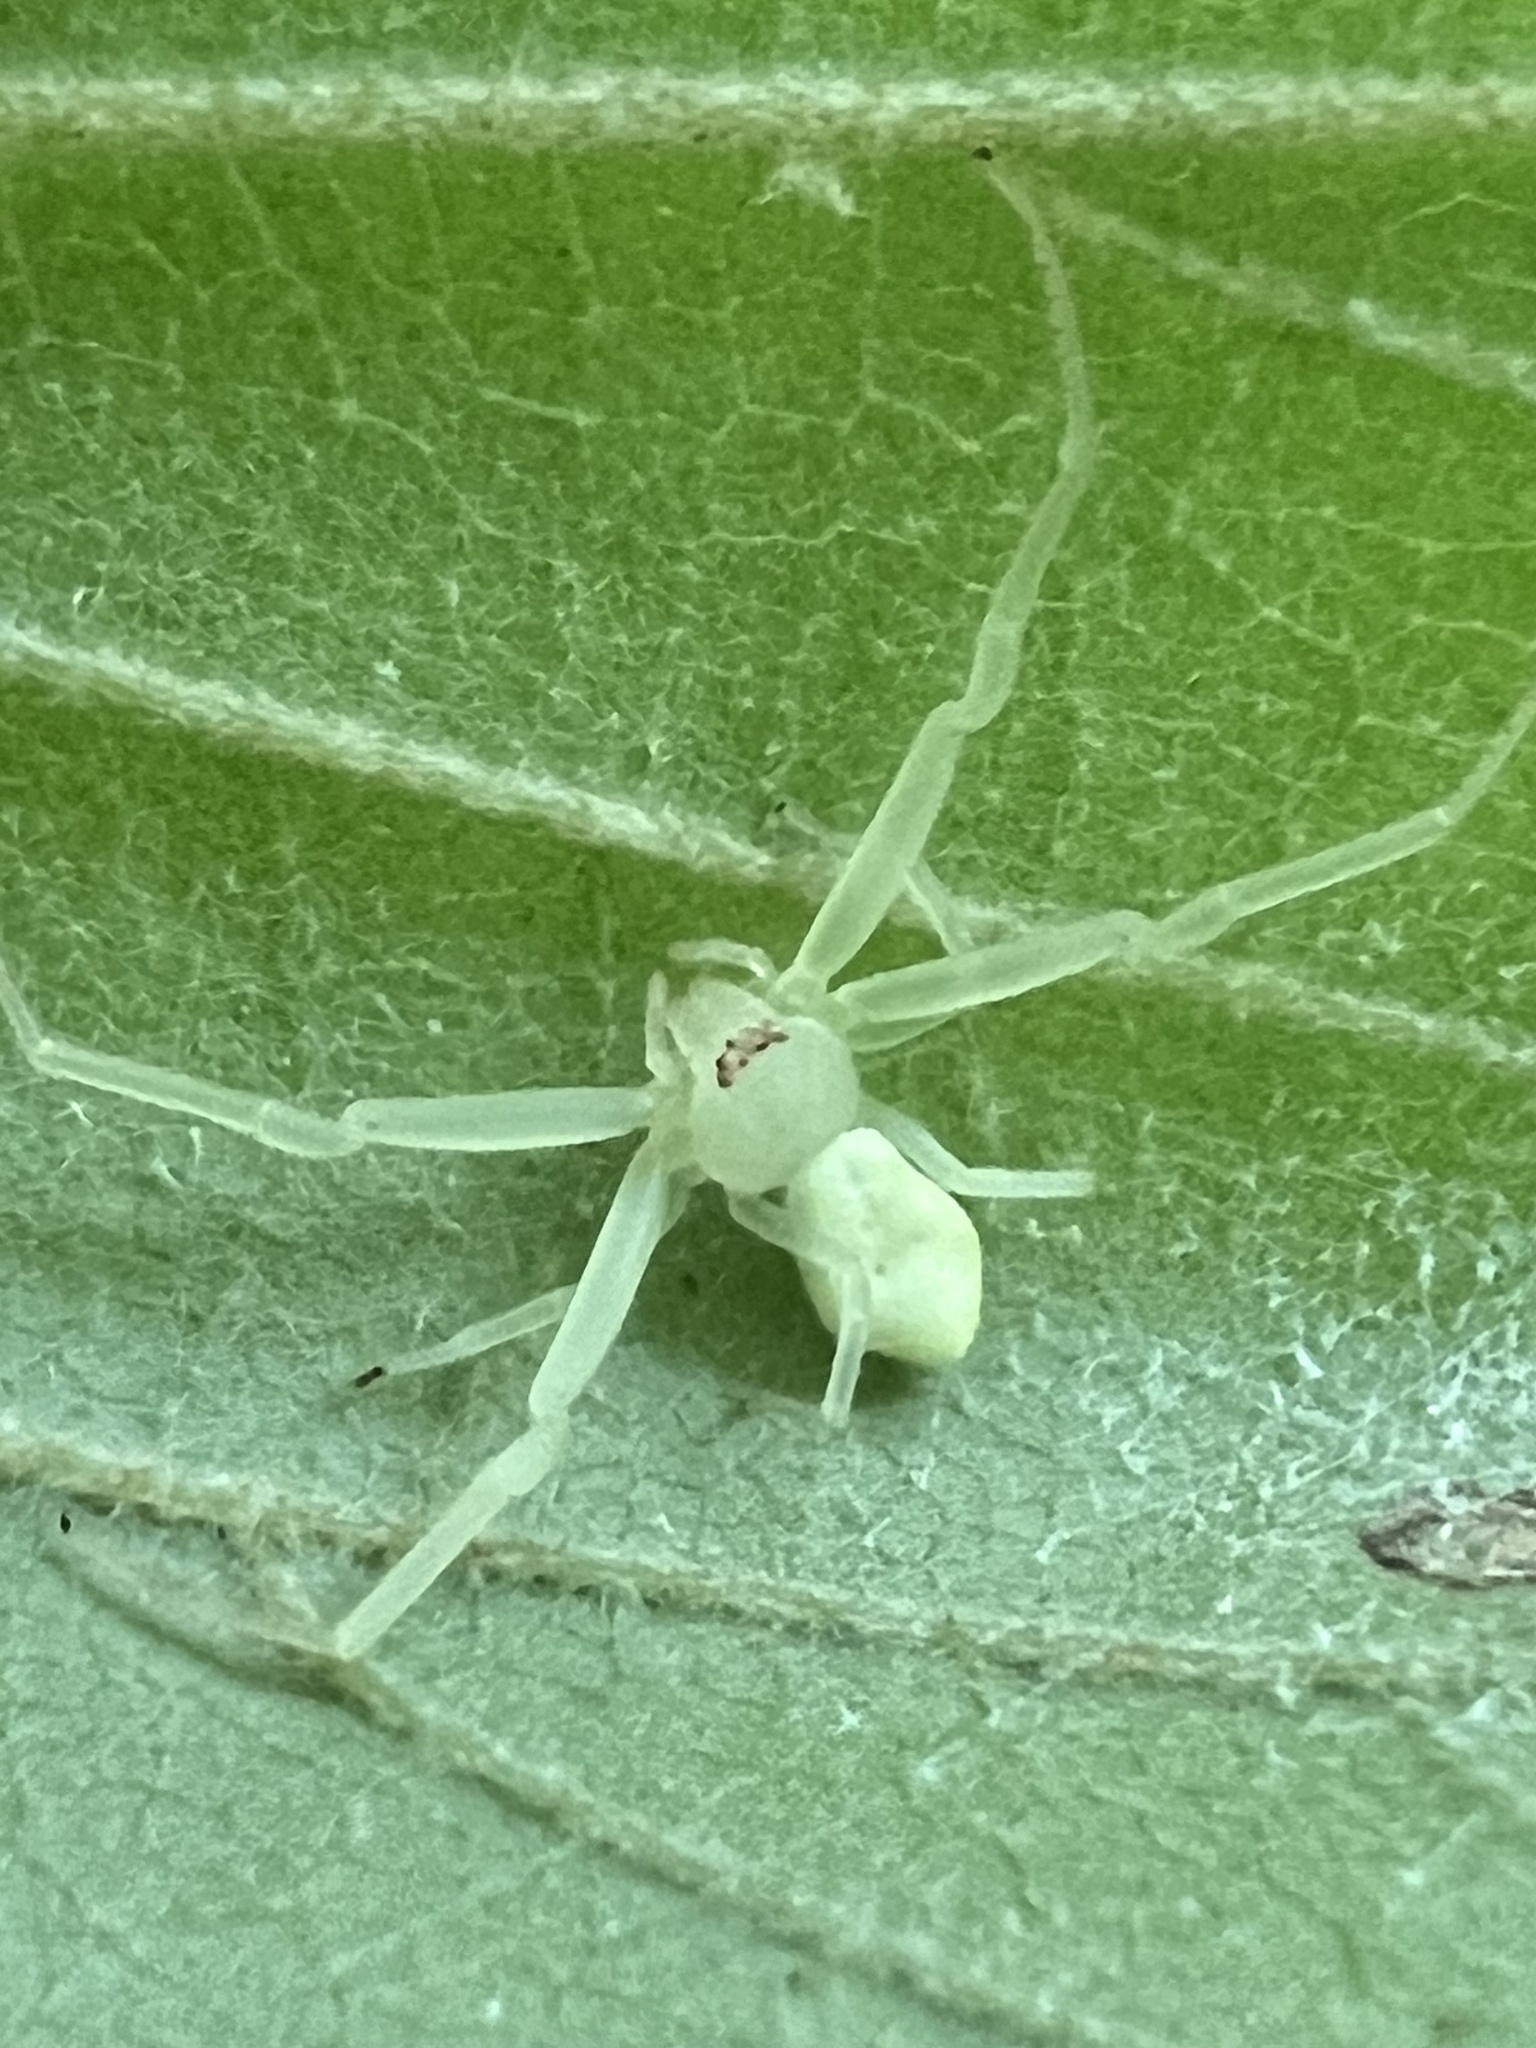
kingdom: Animalia
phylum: Arthropoda
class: Arachnida
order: Araneae
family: Thomisidae
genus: Misumessus
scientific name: Misumessus oblongus
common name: American green crab spider
